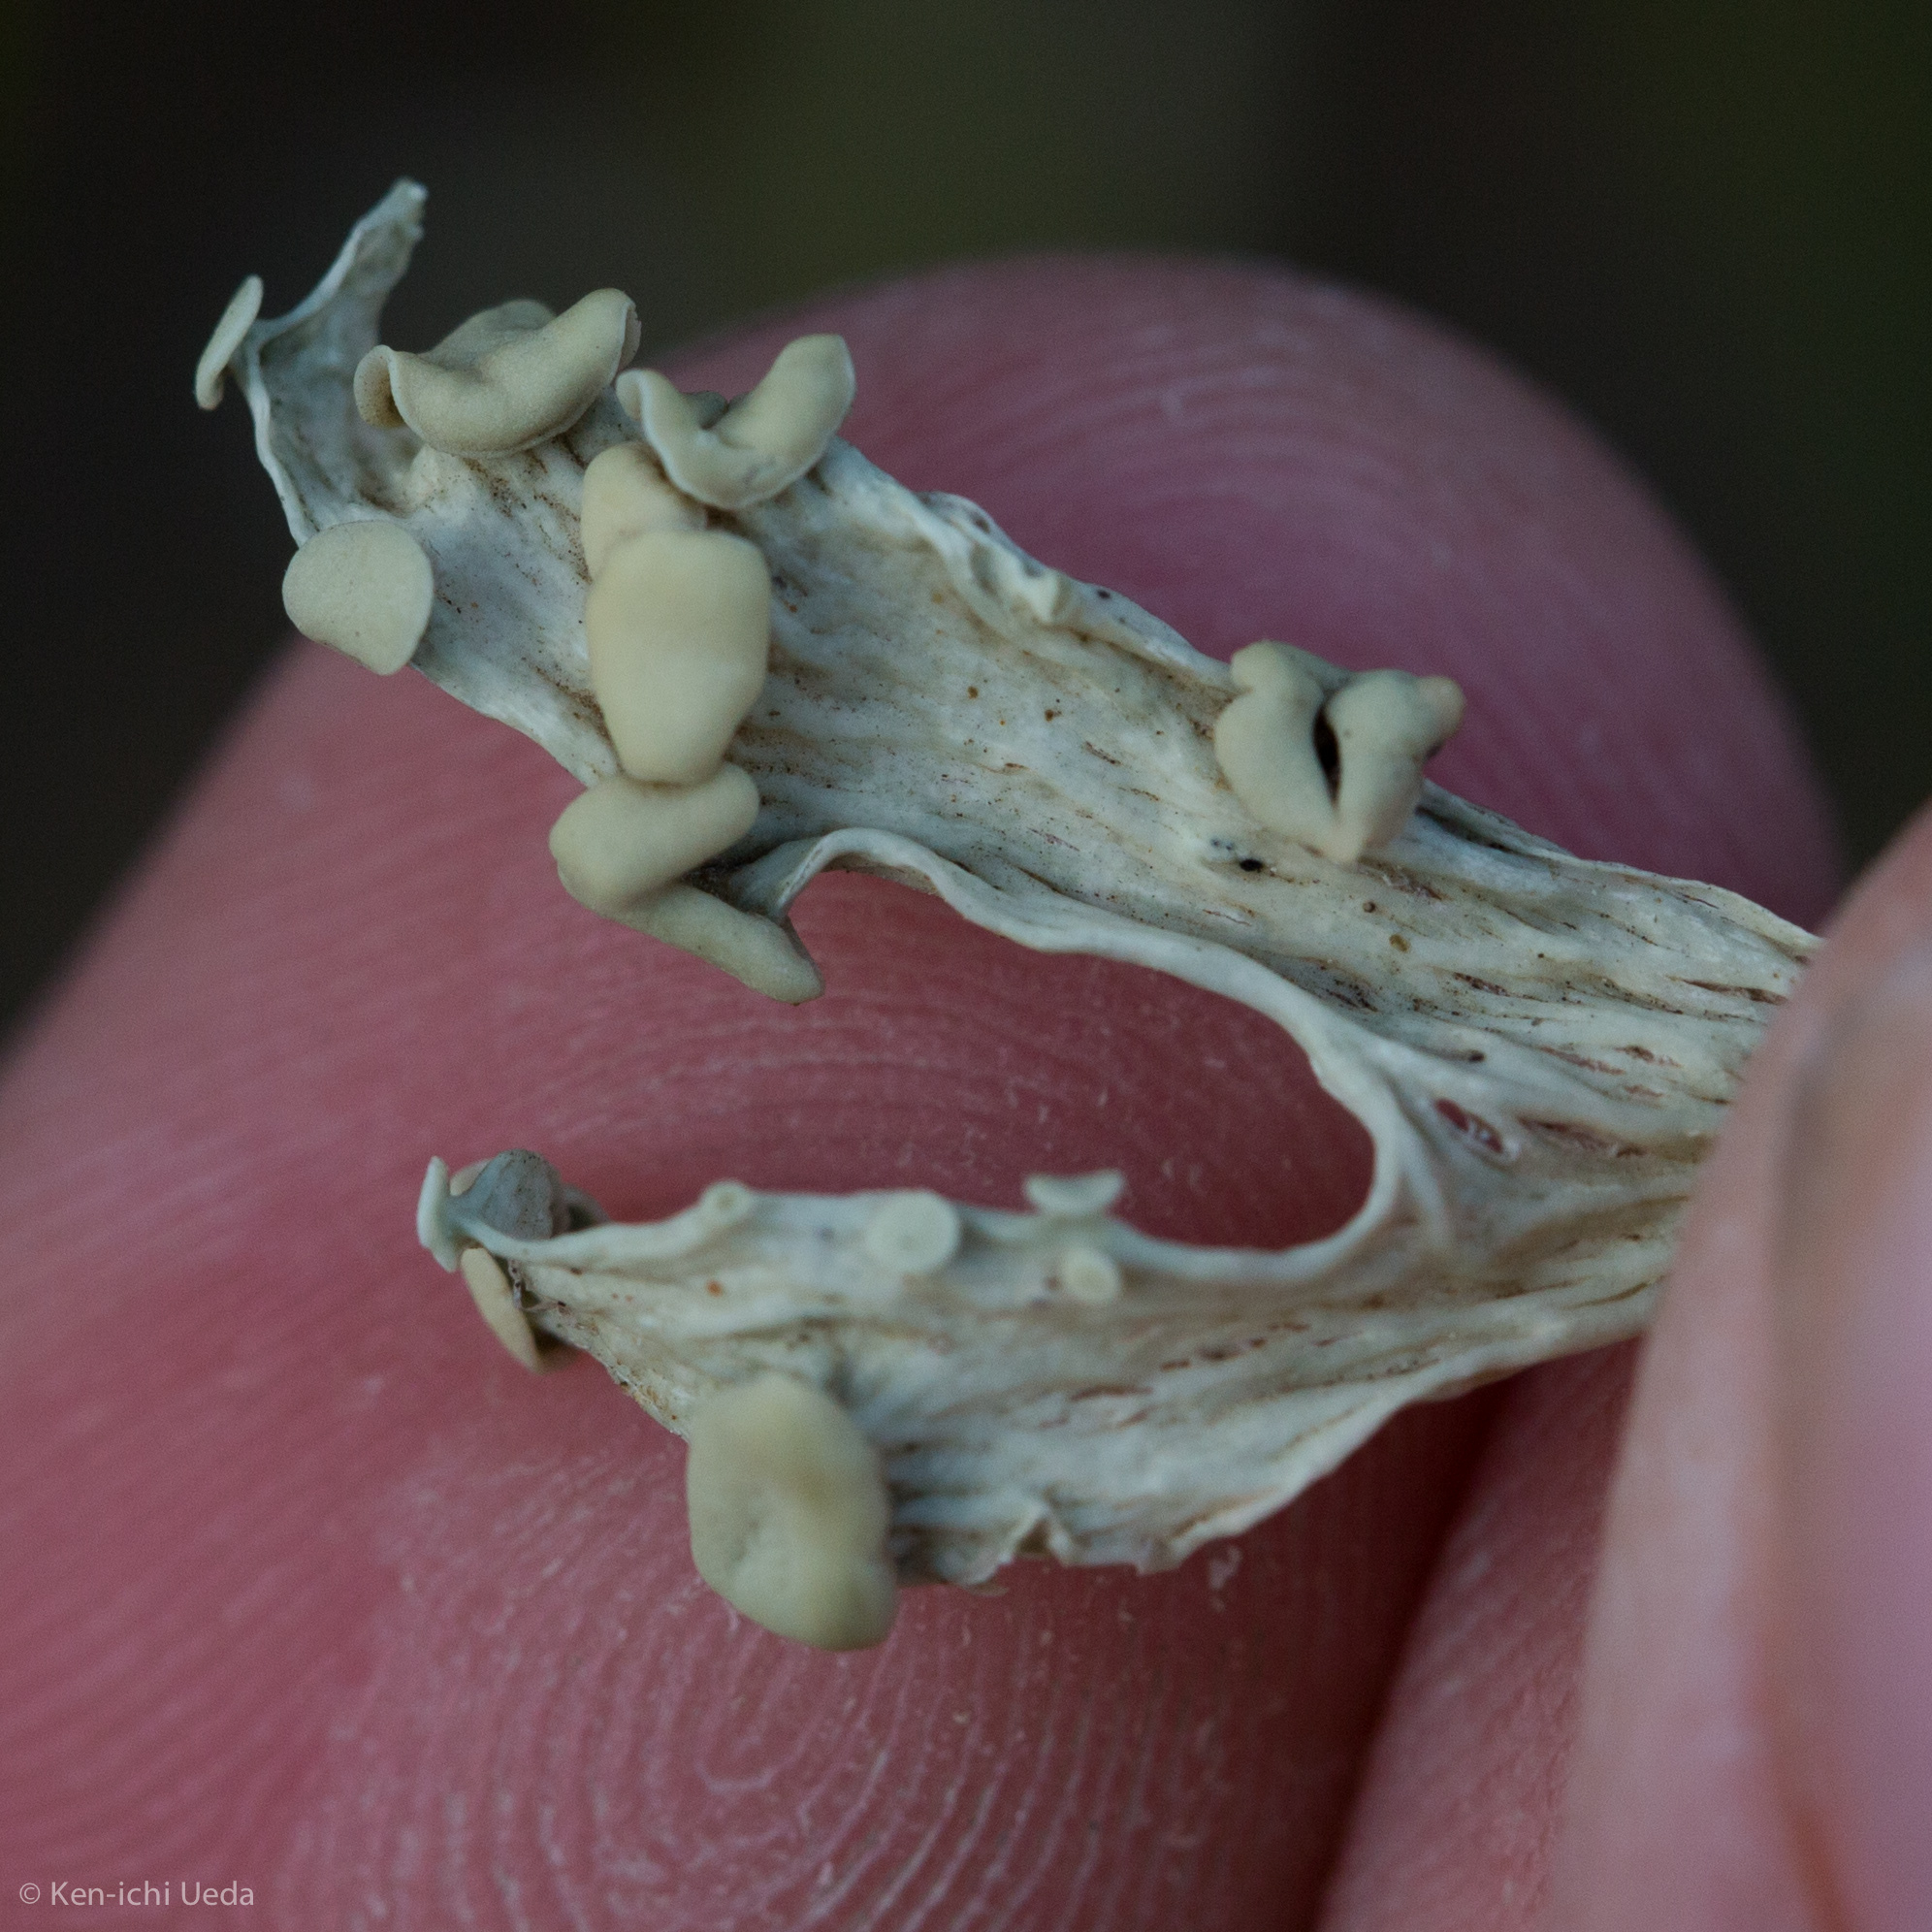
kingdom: Fungi
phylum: Ascomycota
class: Lecanoromycetes
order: Lecanorales
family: Ramalinaceae
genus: Ramalina
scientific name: Ramalina celastri
